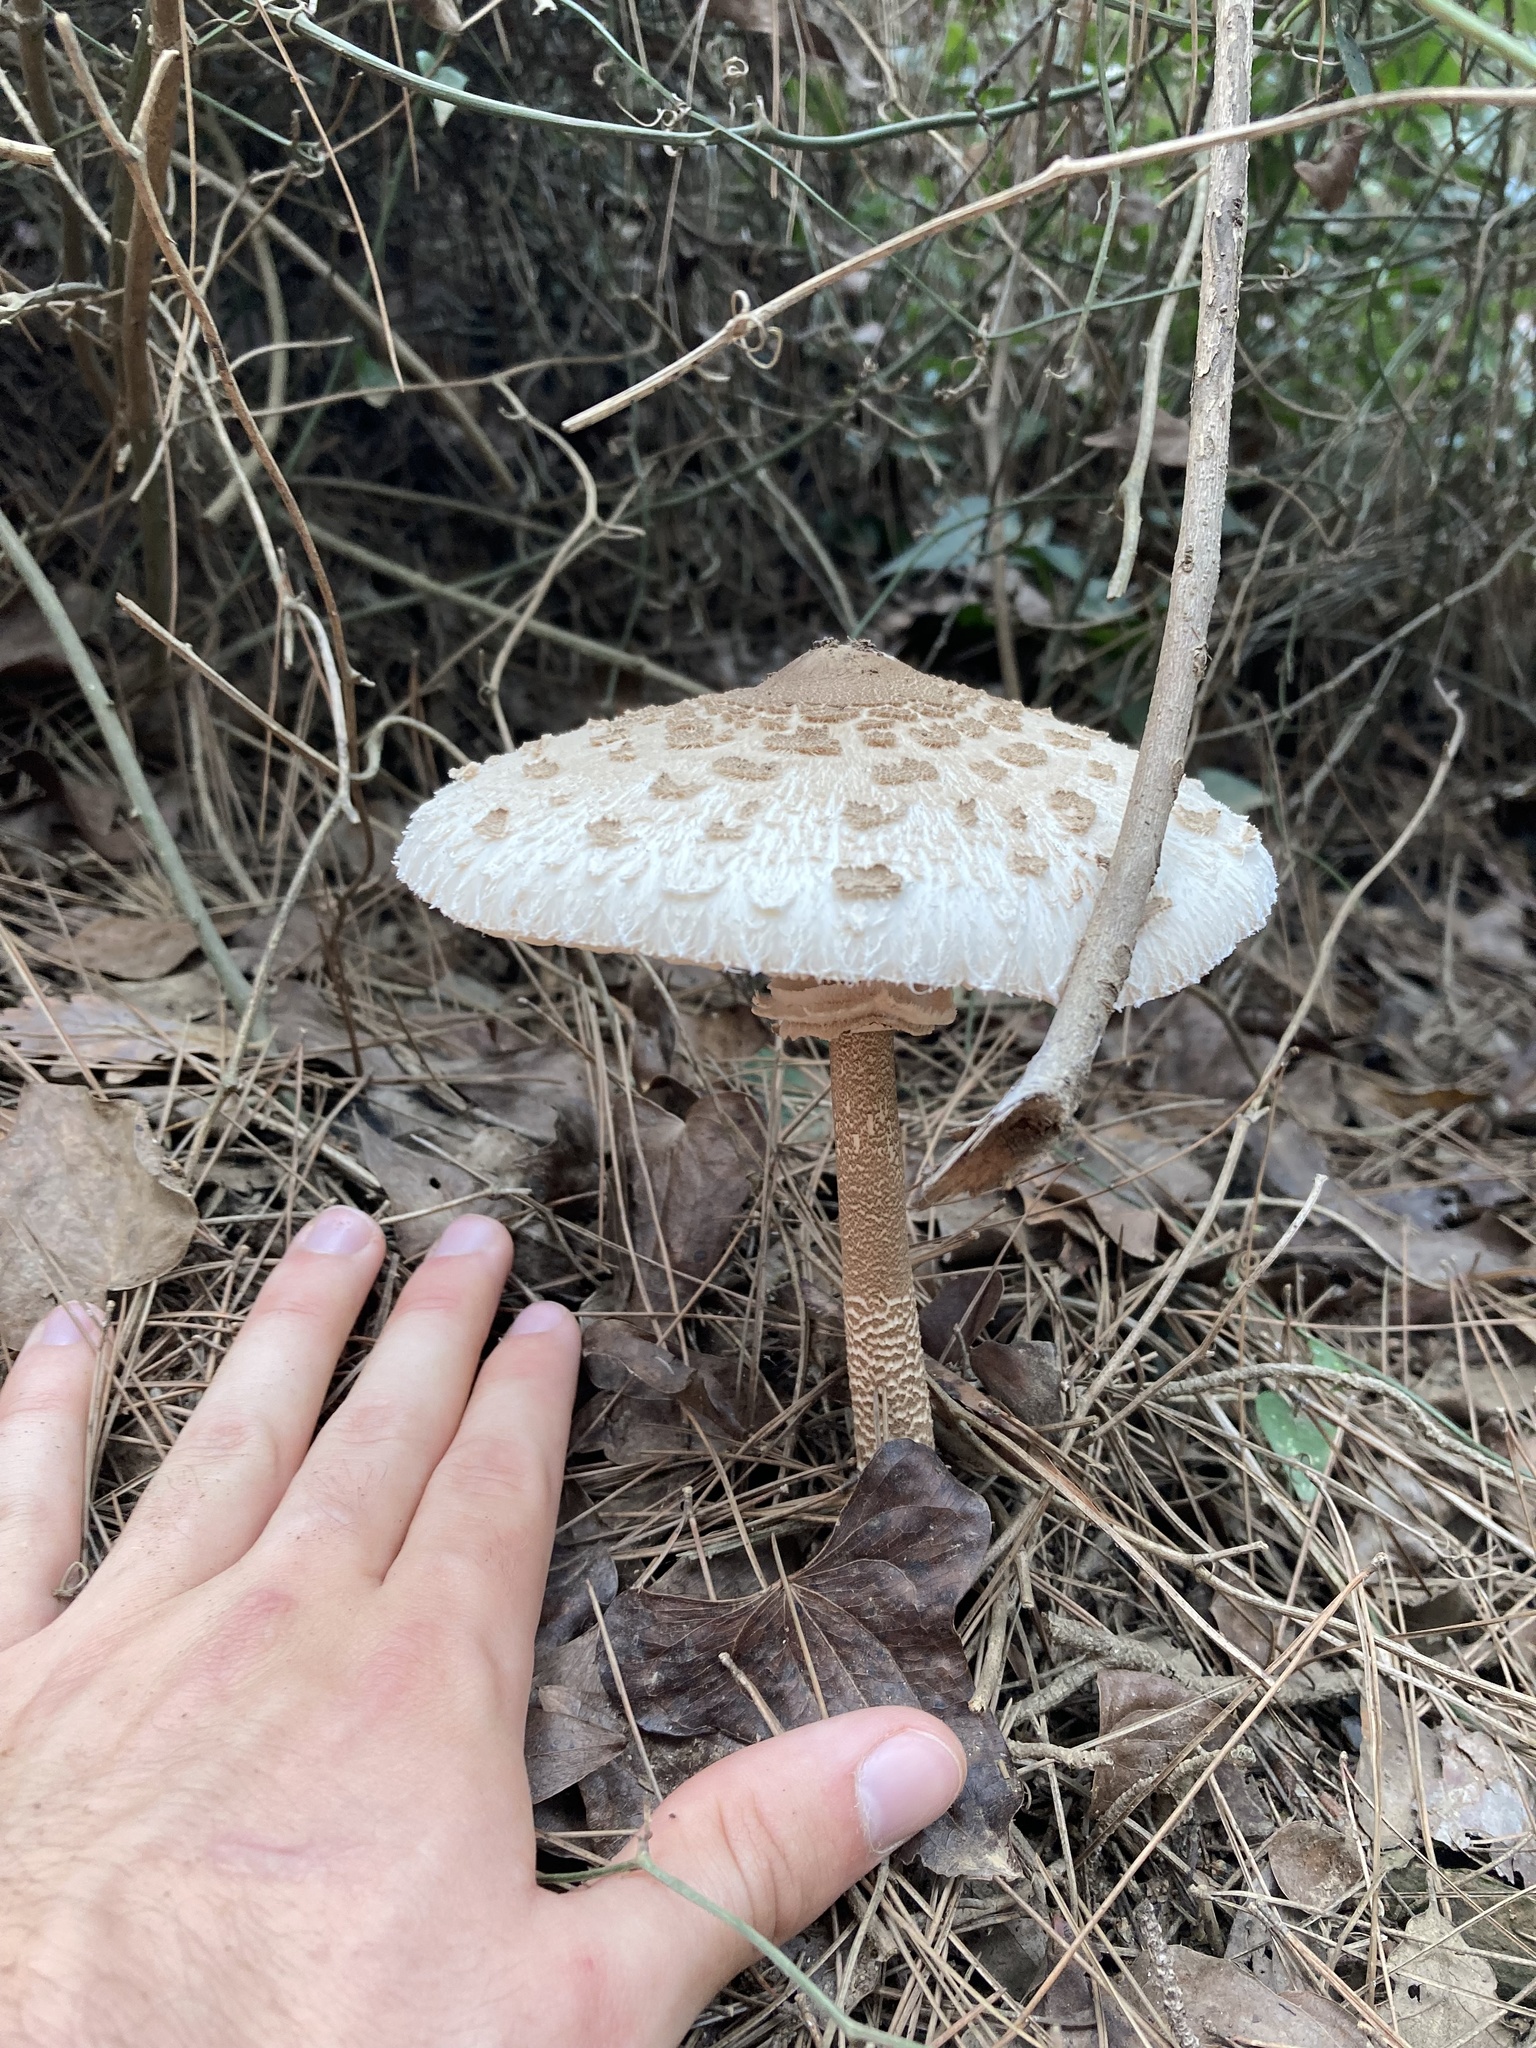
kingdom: Fungi
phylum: Basidiomycota
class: Agaricomycetes
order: Agaricales
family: Agaricaceae
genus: Macrolepiota
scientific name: Macrolepiota procera
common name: Parasol
